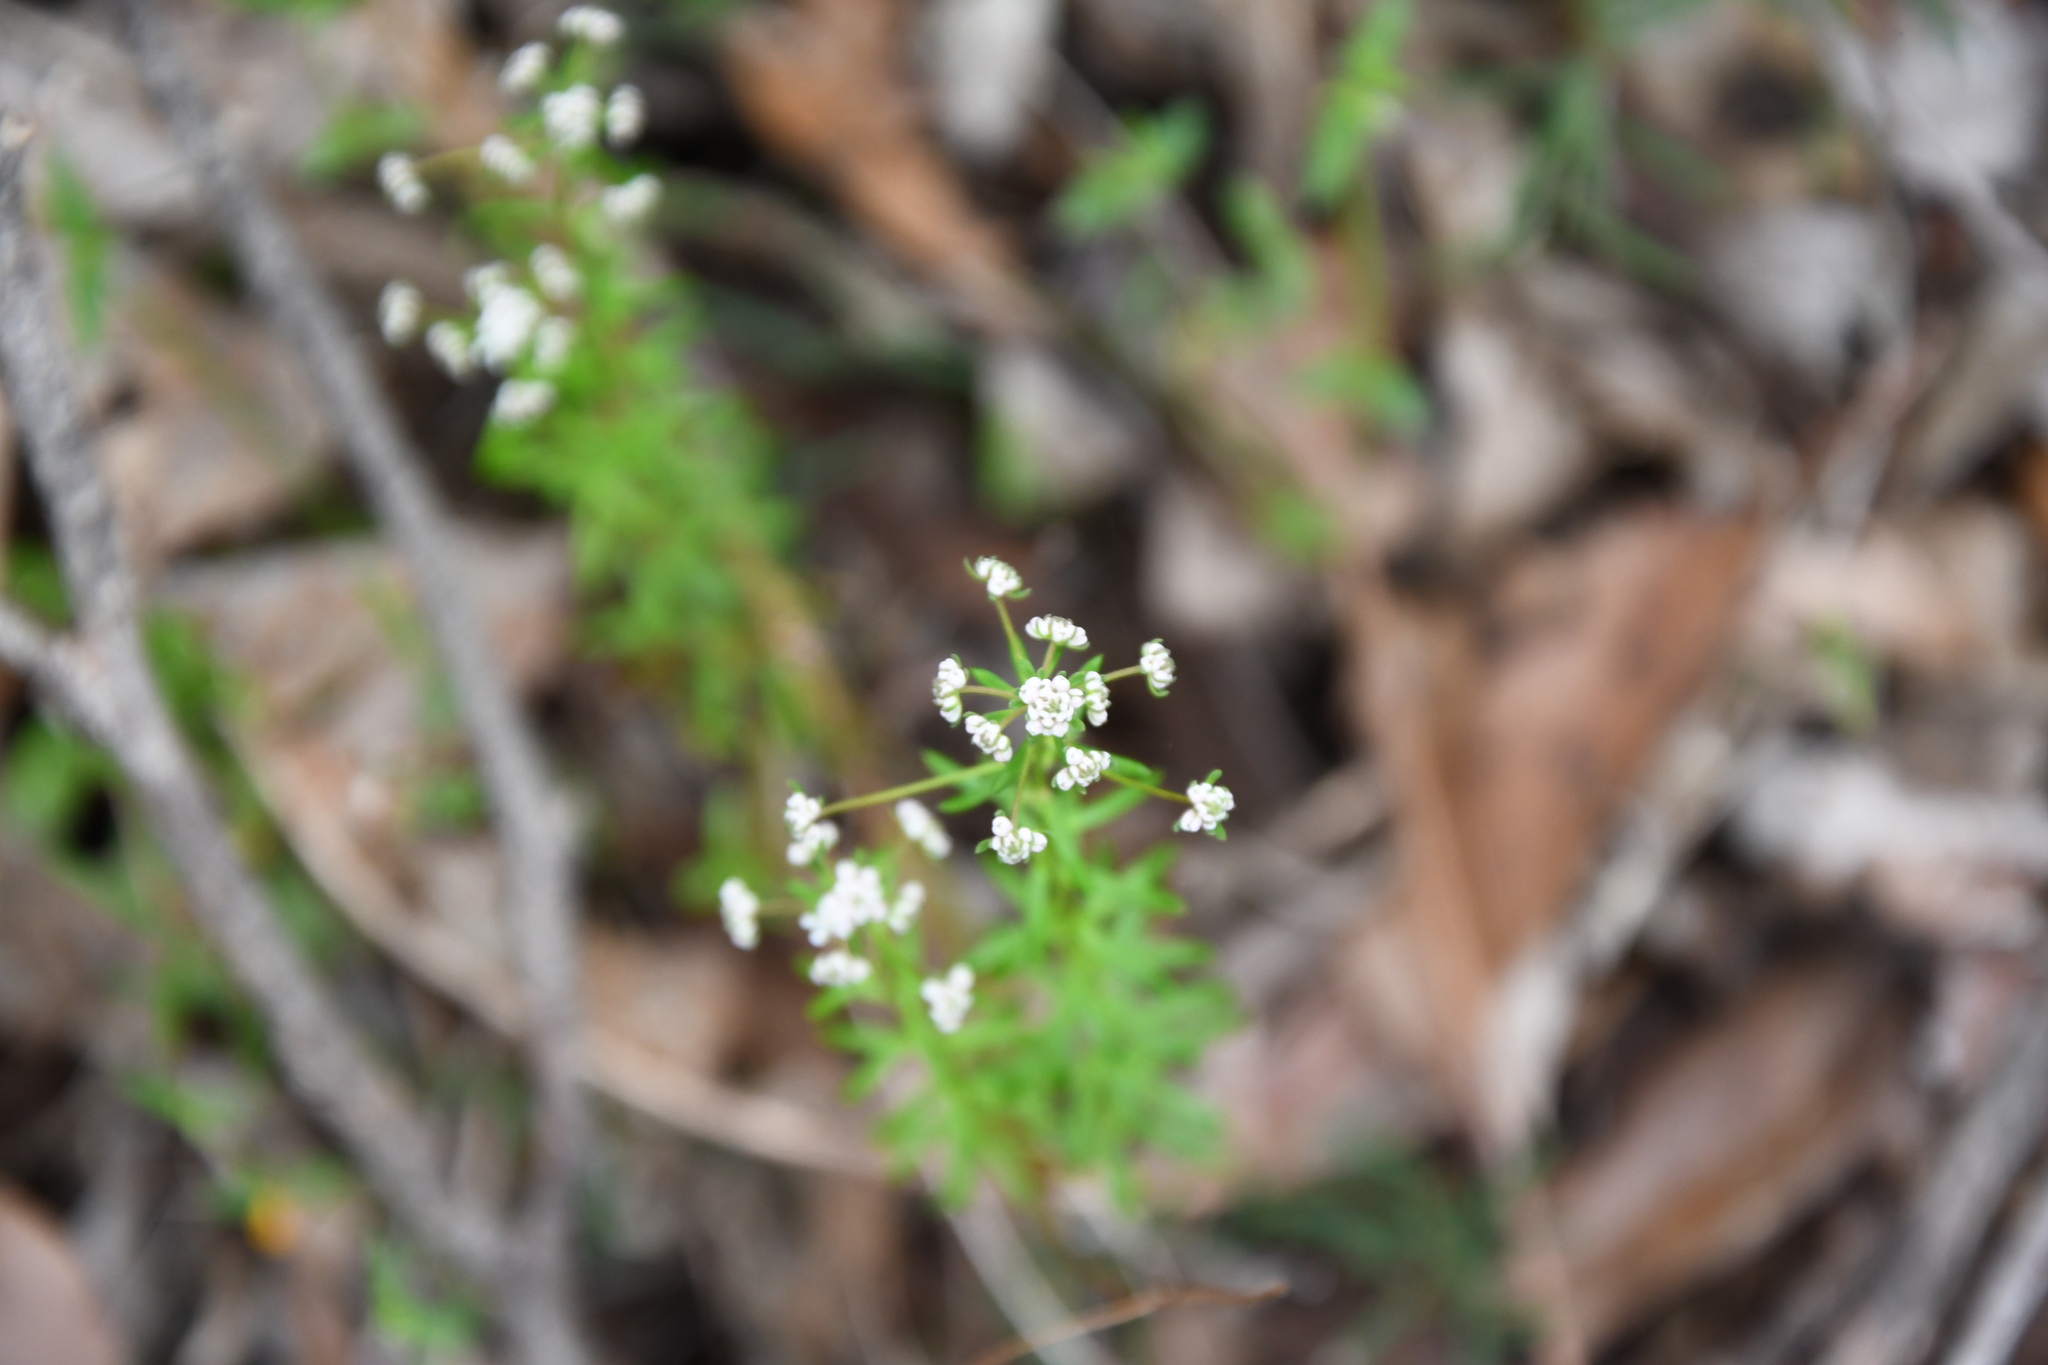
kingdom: Plantae
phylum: Tracheophyta
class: Magnoliopsida
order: Malpighiales
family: Phyllanthaceae
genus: Poranthera
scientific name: Poranthera huegelii
